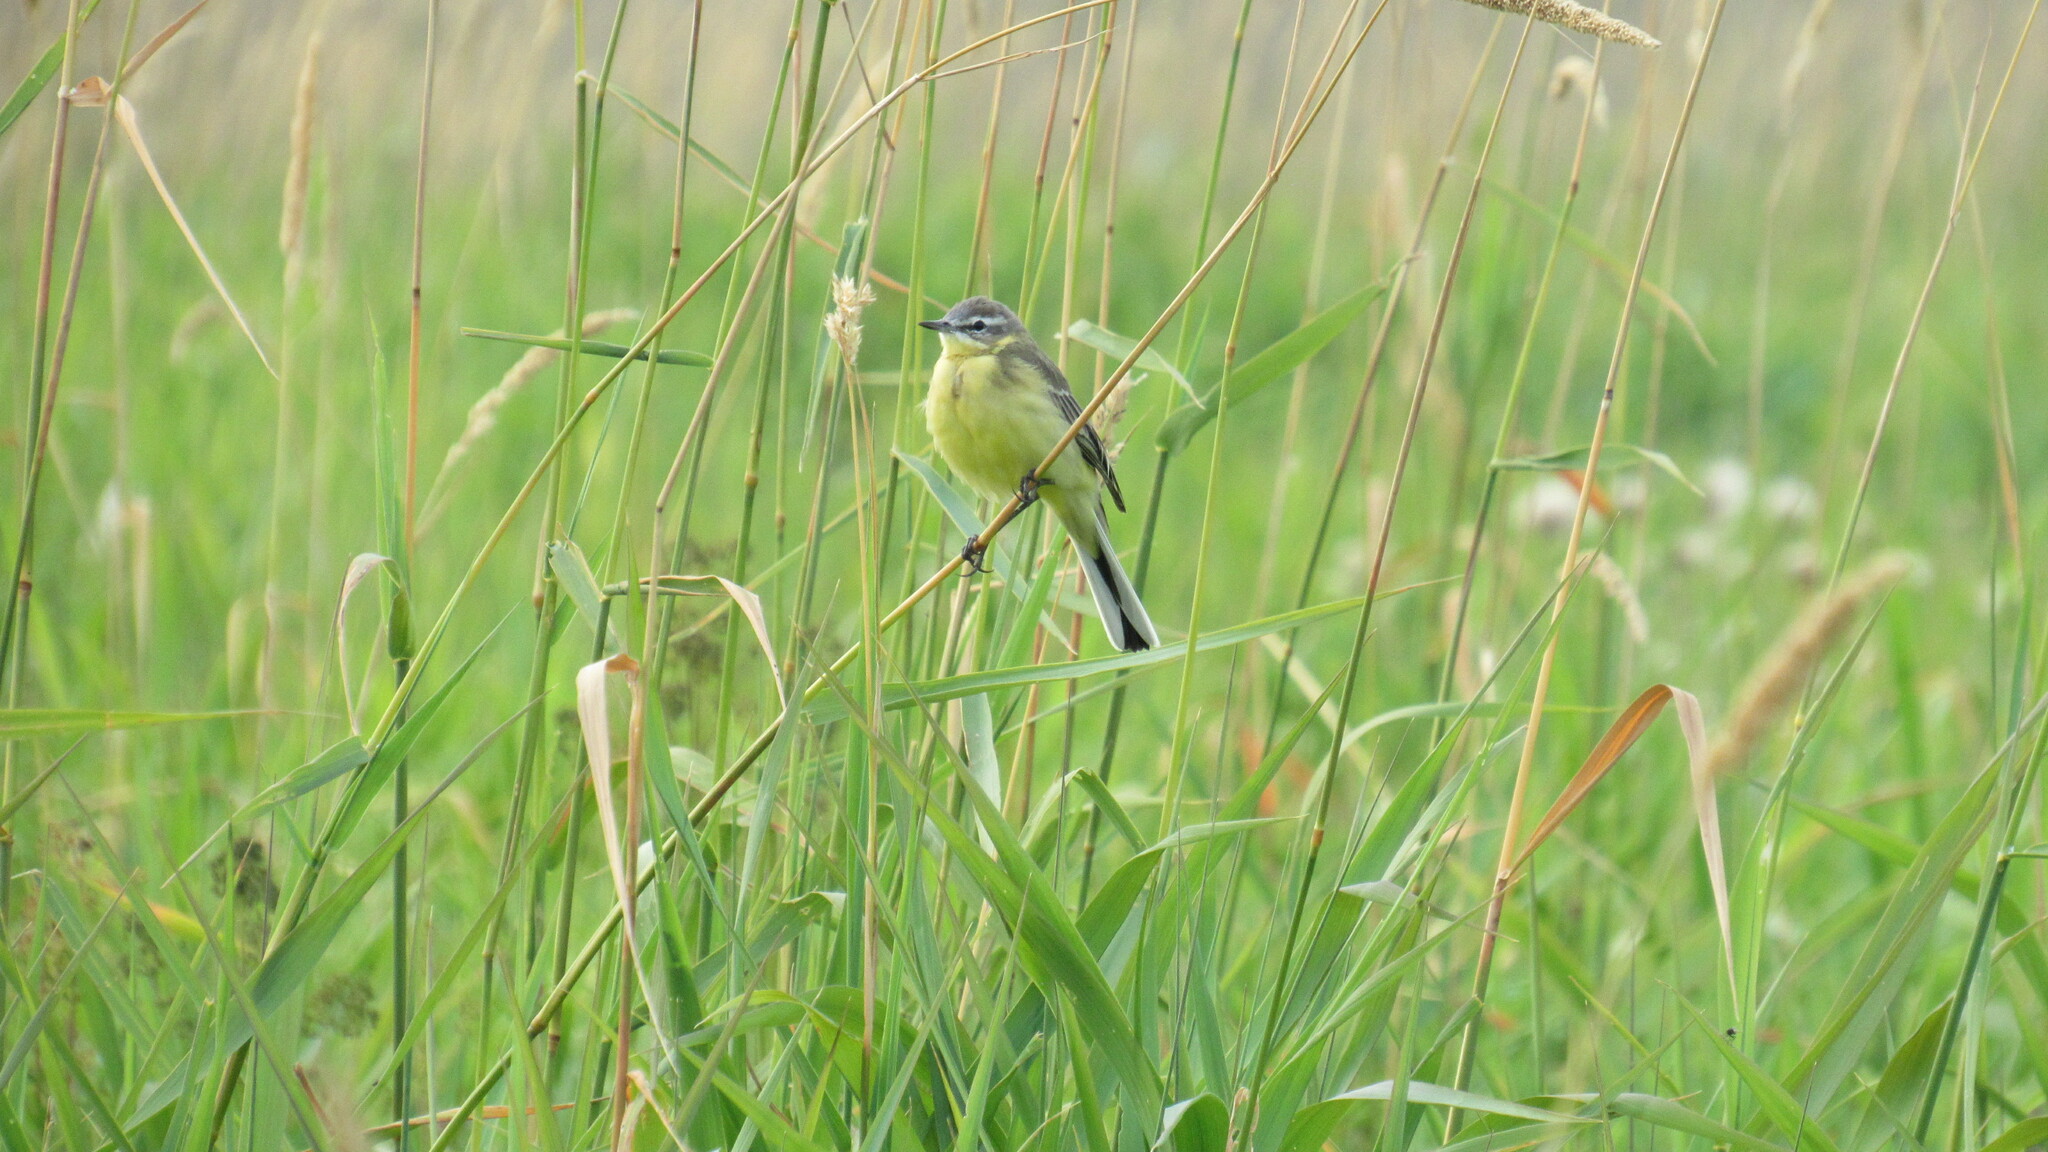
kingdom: Animalia
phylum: Chordata
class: Aves
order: Passeriformes
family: Motacillidae
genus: Motacilla
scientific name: Motacilla flava
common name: Western yellow wagtail
